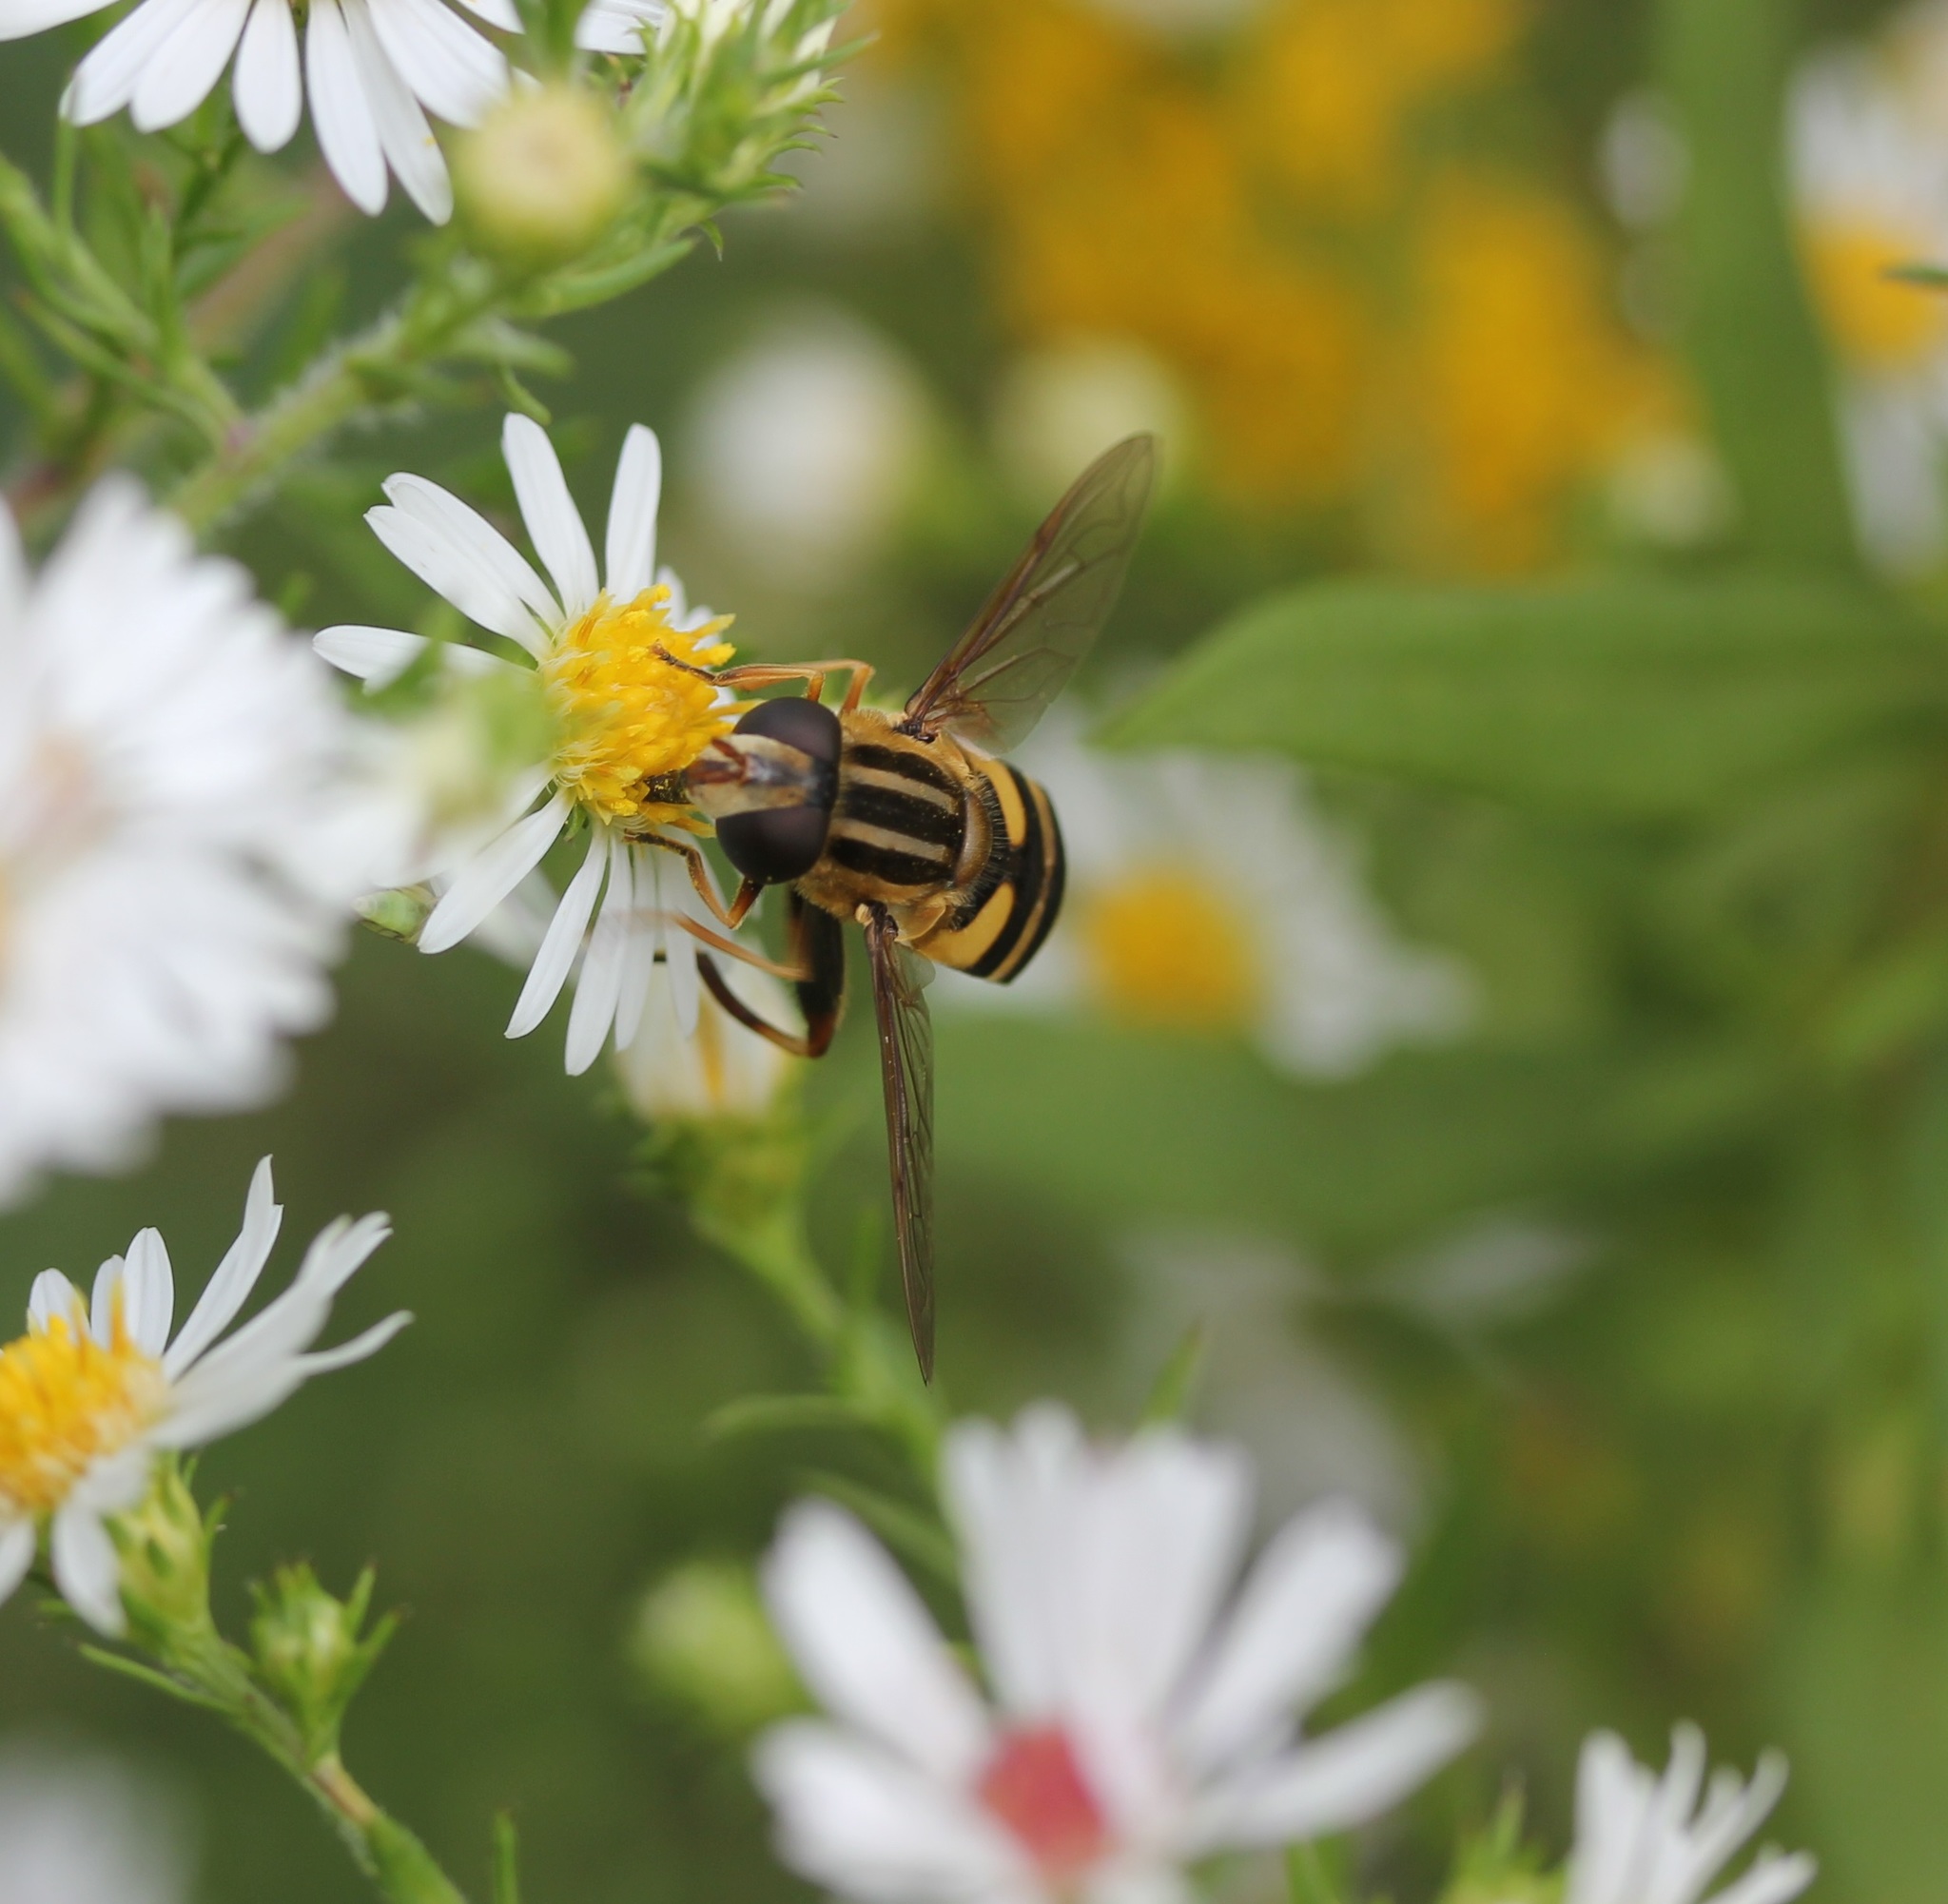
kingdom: Animalia
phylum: Arthropoda
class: Insecta
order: Diptera
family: Syrphidae
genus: Helophilus
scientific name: Helophilus fasciatus
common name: Narrow-headed marsh fly
